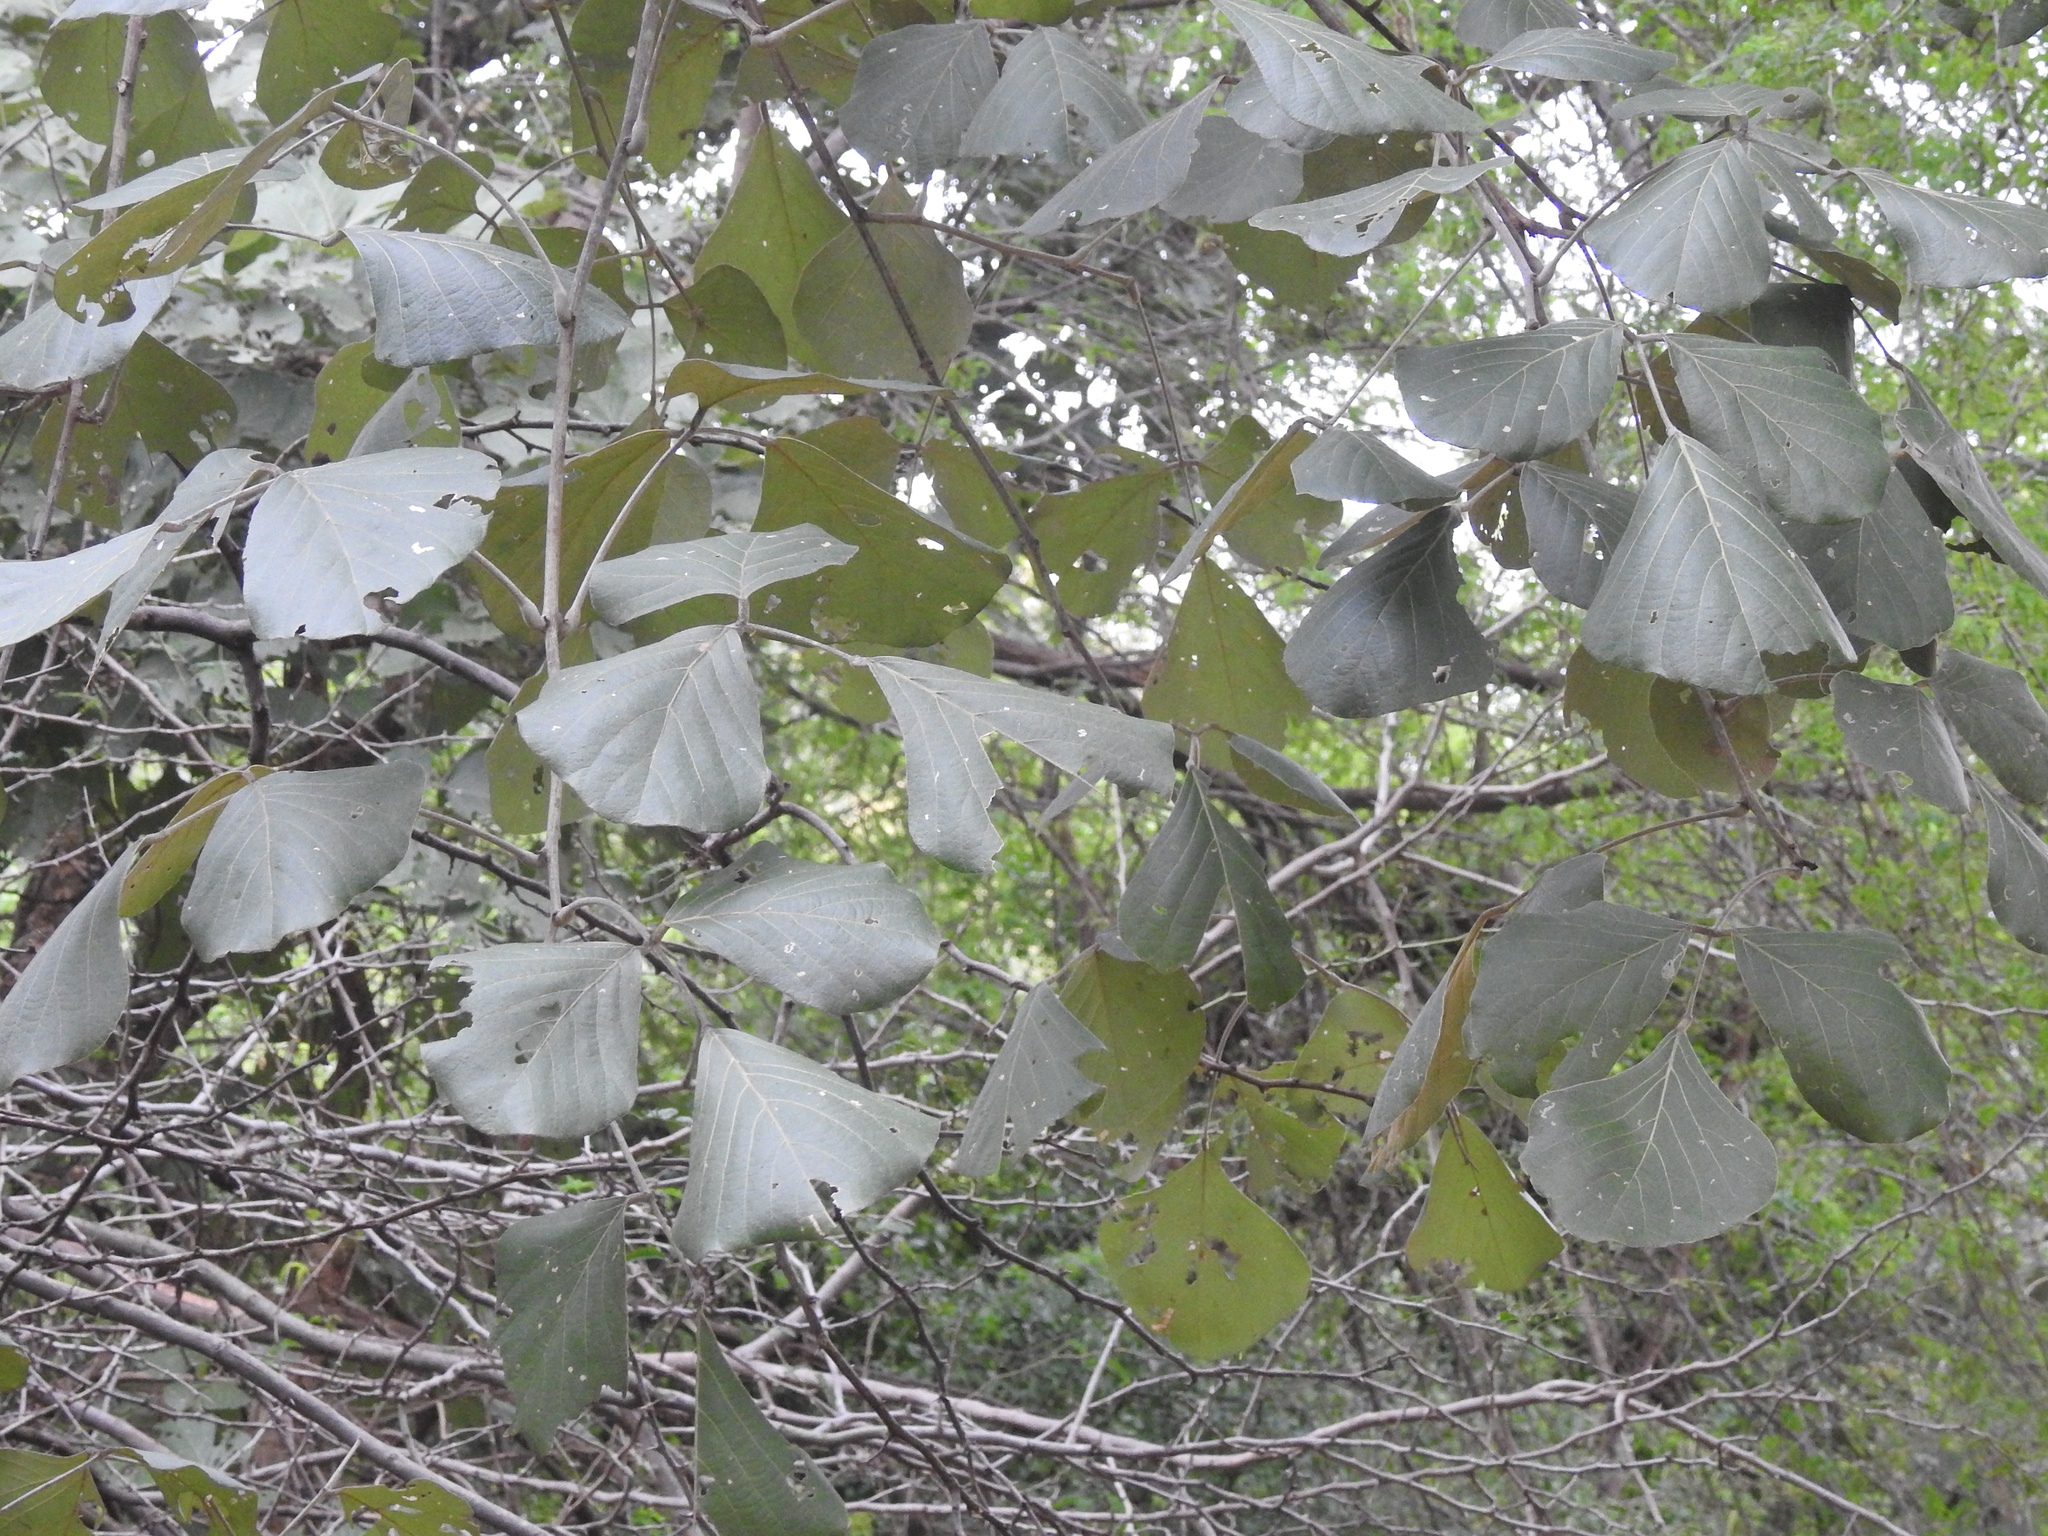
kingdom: Plantae
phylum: Tracheophyta
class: Magnoliopsida
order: Fabales
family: Fabaceae
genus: Butea
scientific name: Butea monosperma
